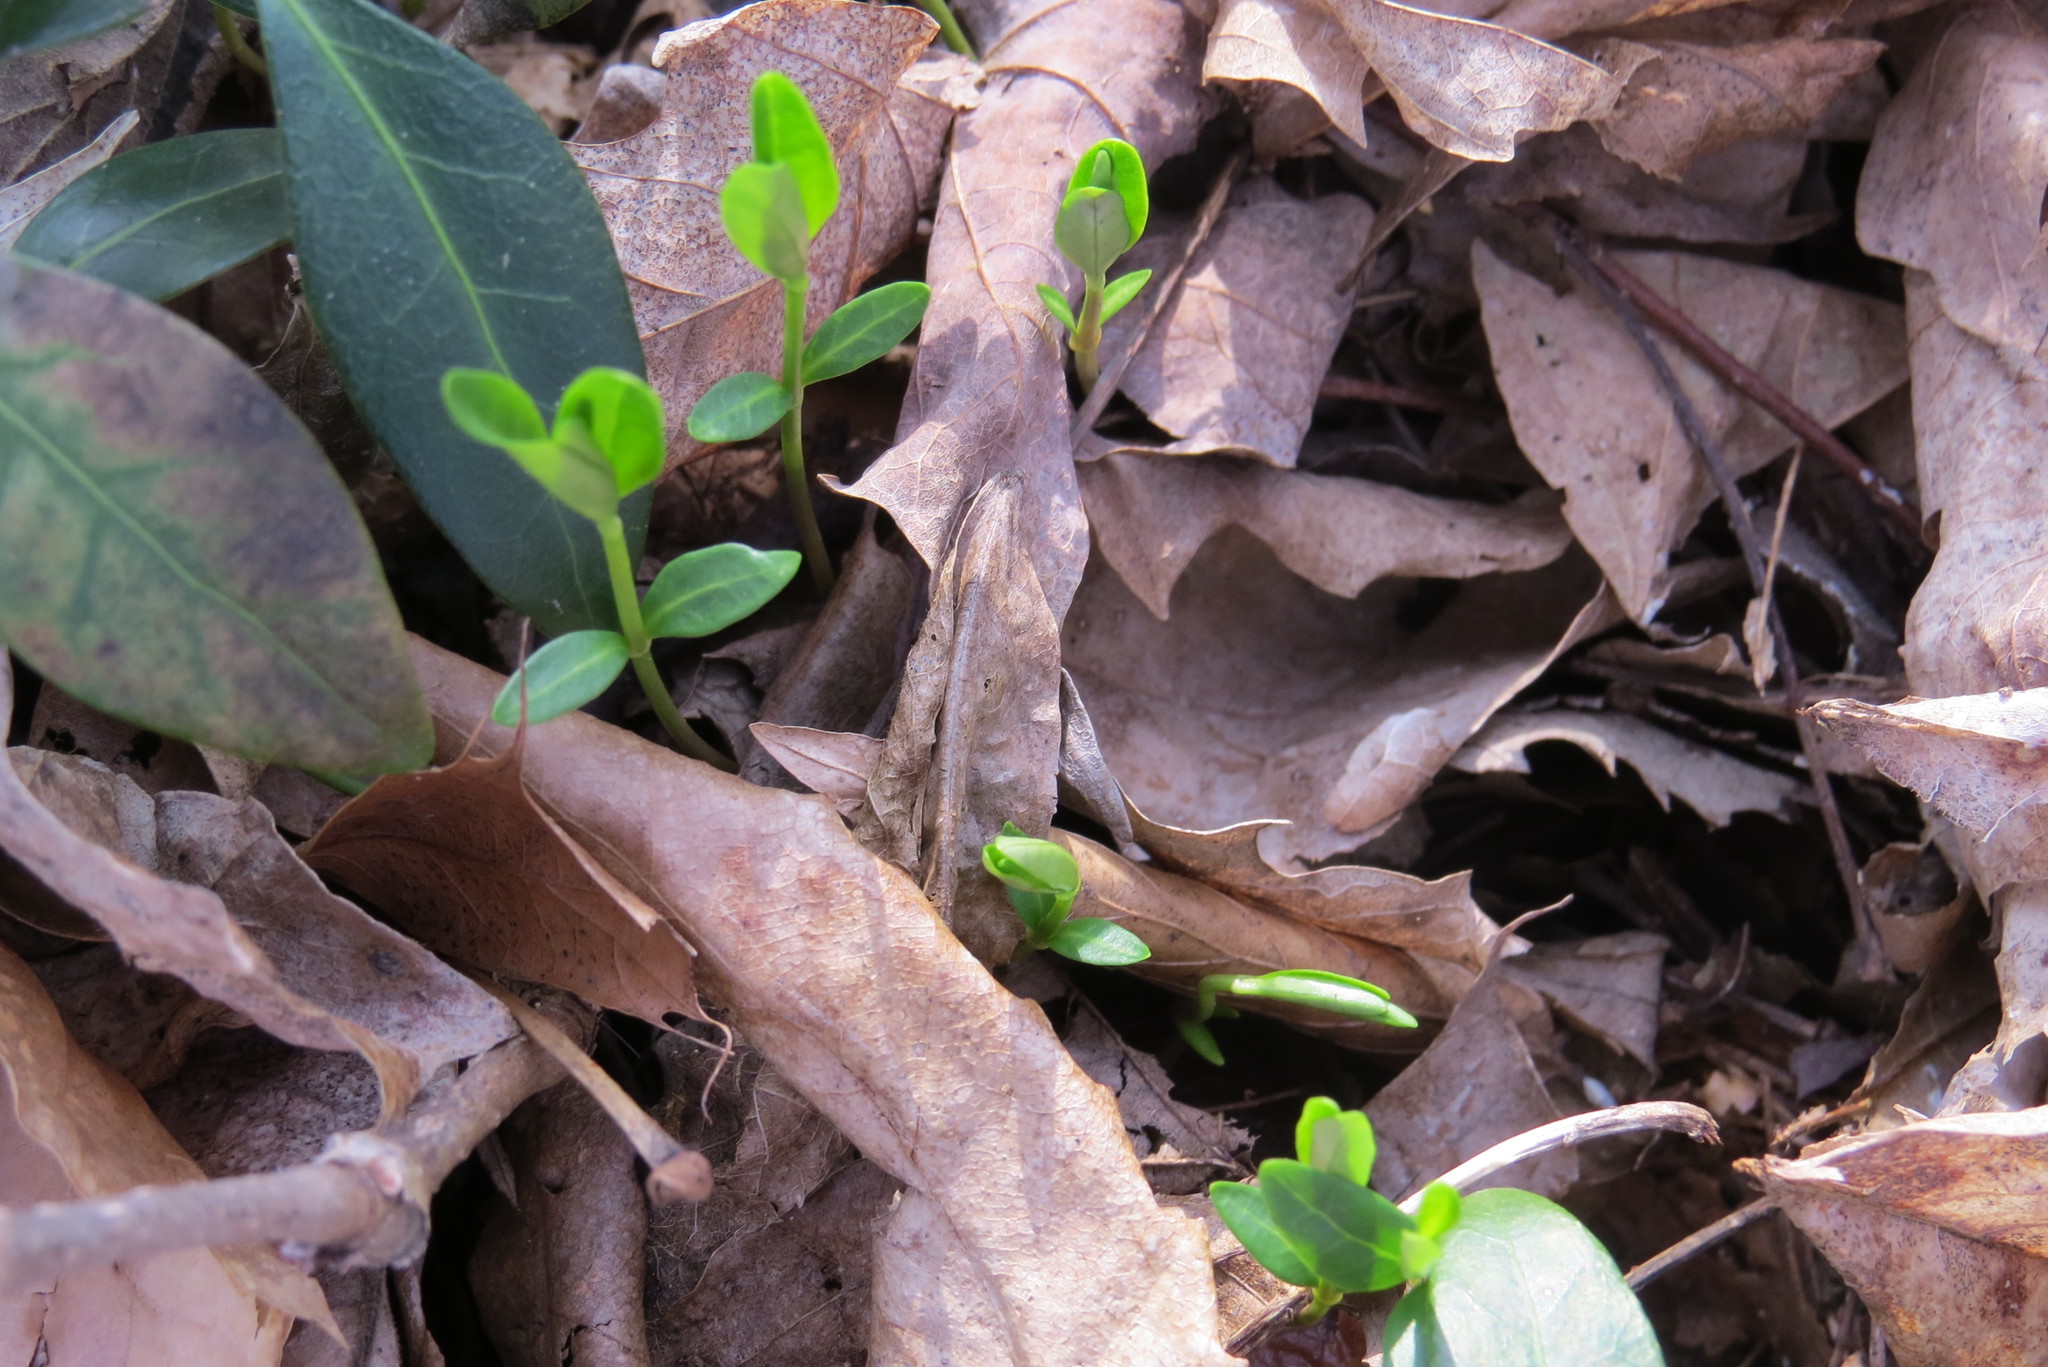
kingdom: Plantae
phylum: Tracheophyta
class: Magnoliopsida
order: Gentianales
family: Apocynaceae
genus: Vinca
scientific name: Vinca minor
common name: Lesser periwinkle
